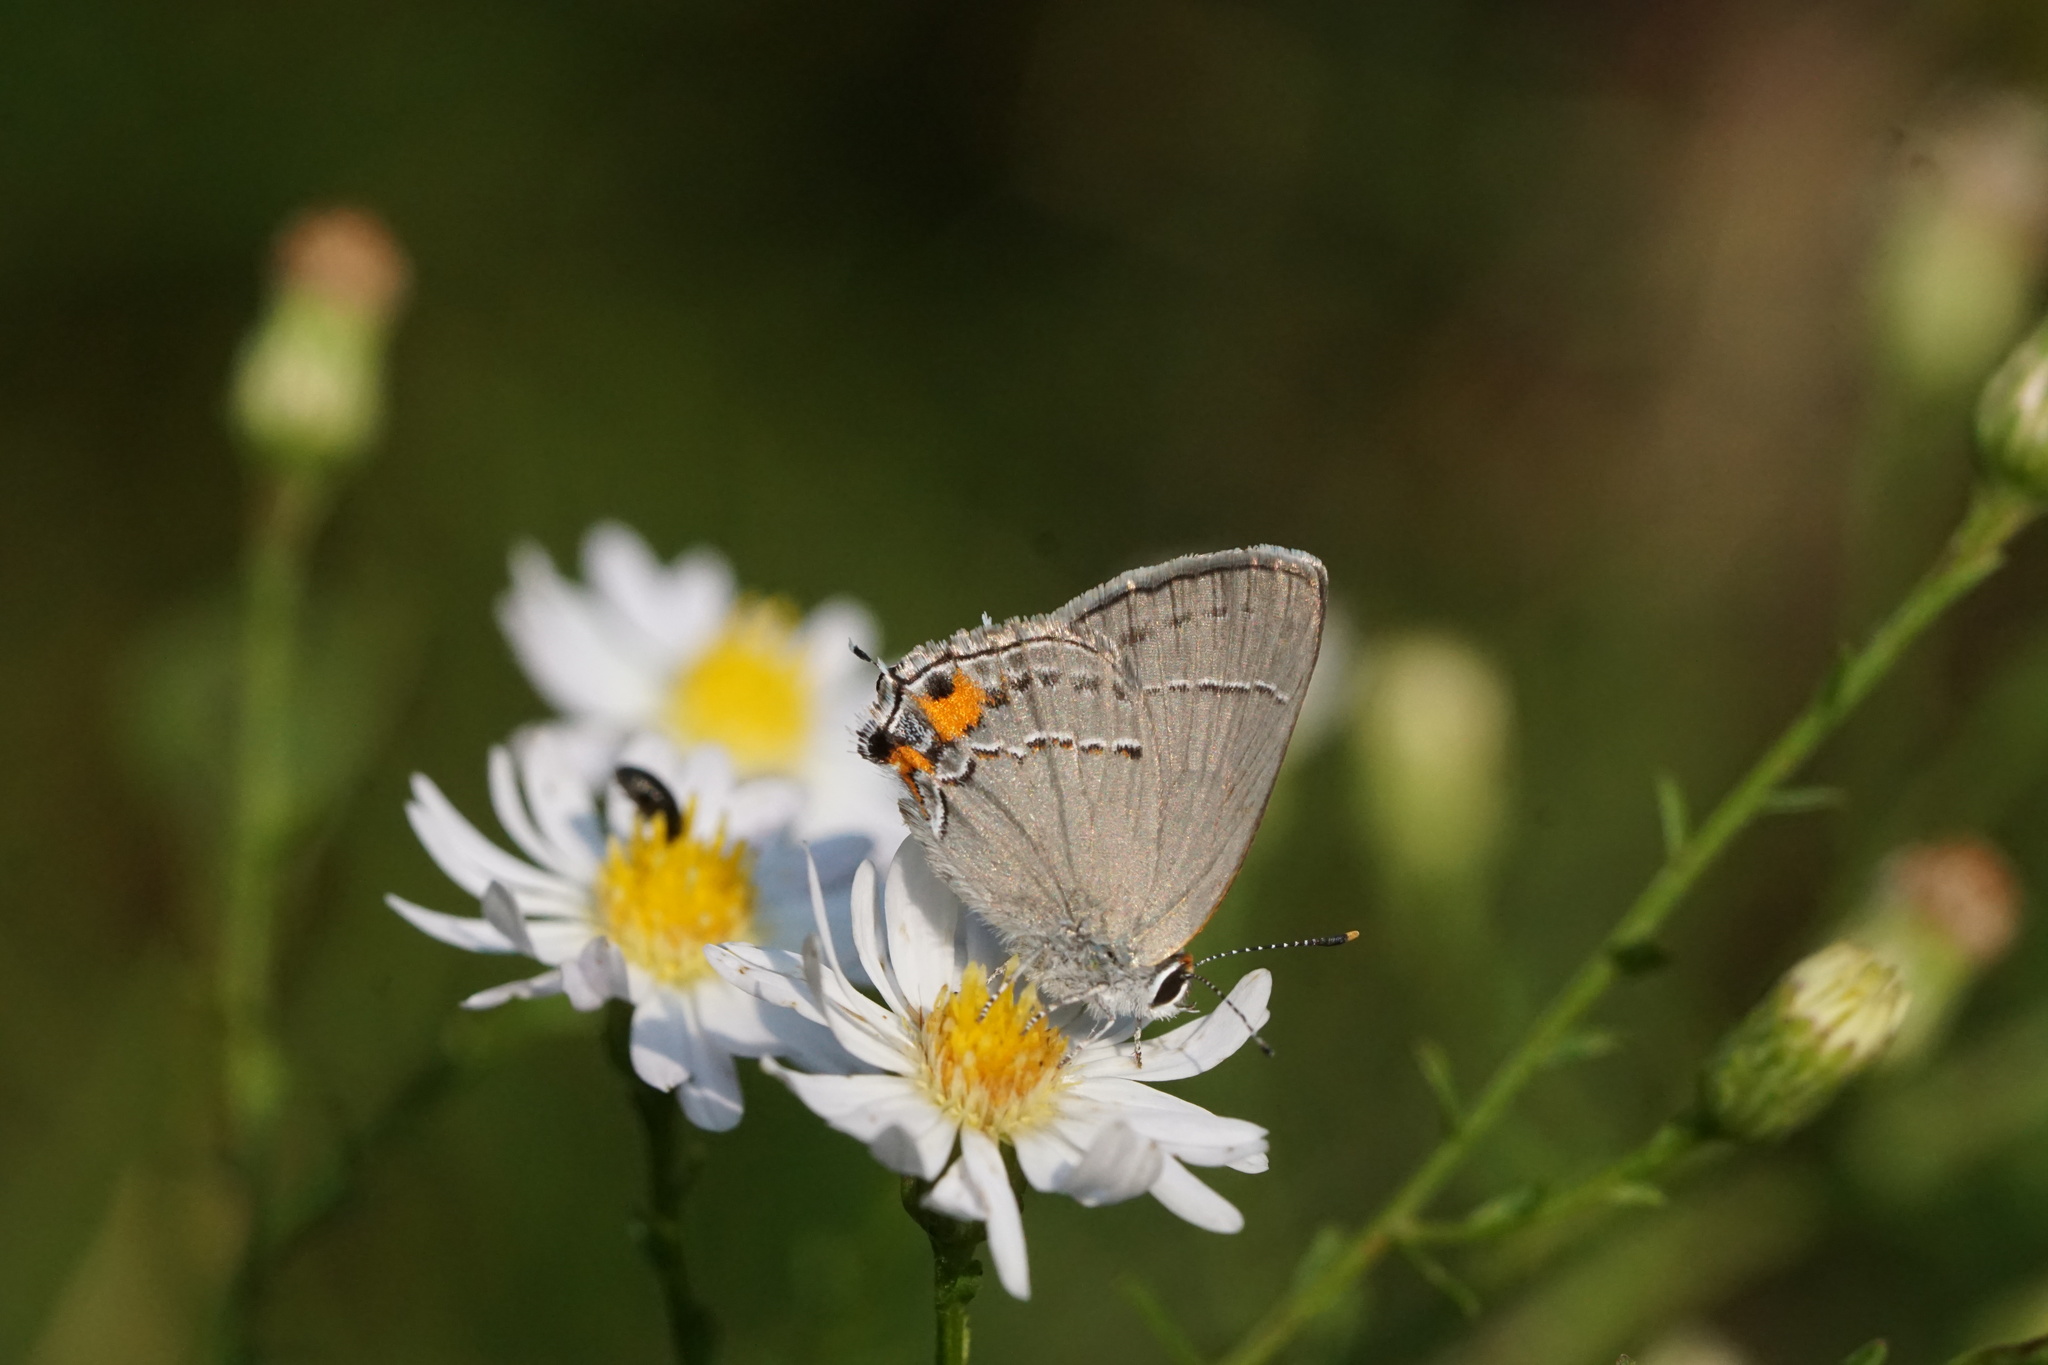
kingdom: Animalia
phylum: Arthropoda
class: Insecta
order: Lepidoptera
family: Lycaenidae
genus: Strymon
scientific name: Strymon melinus
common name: Gray hairstreak
